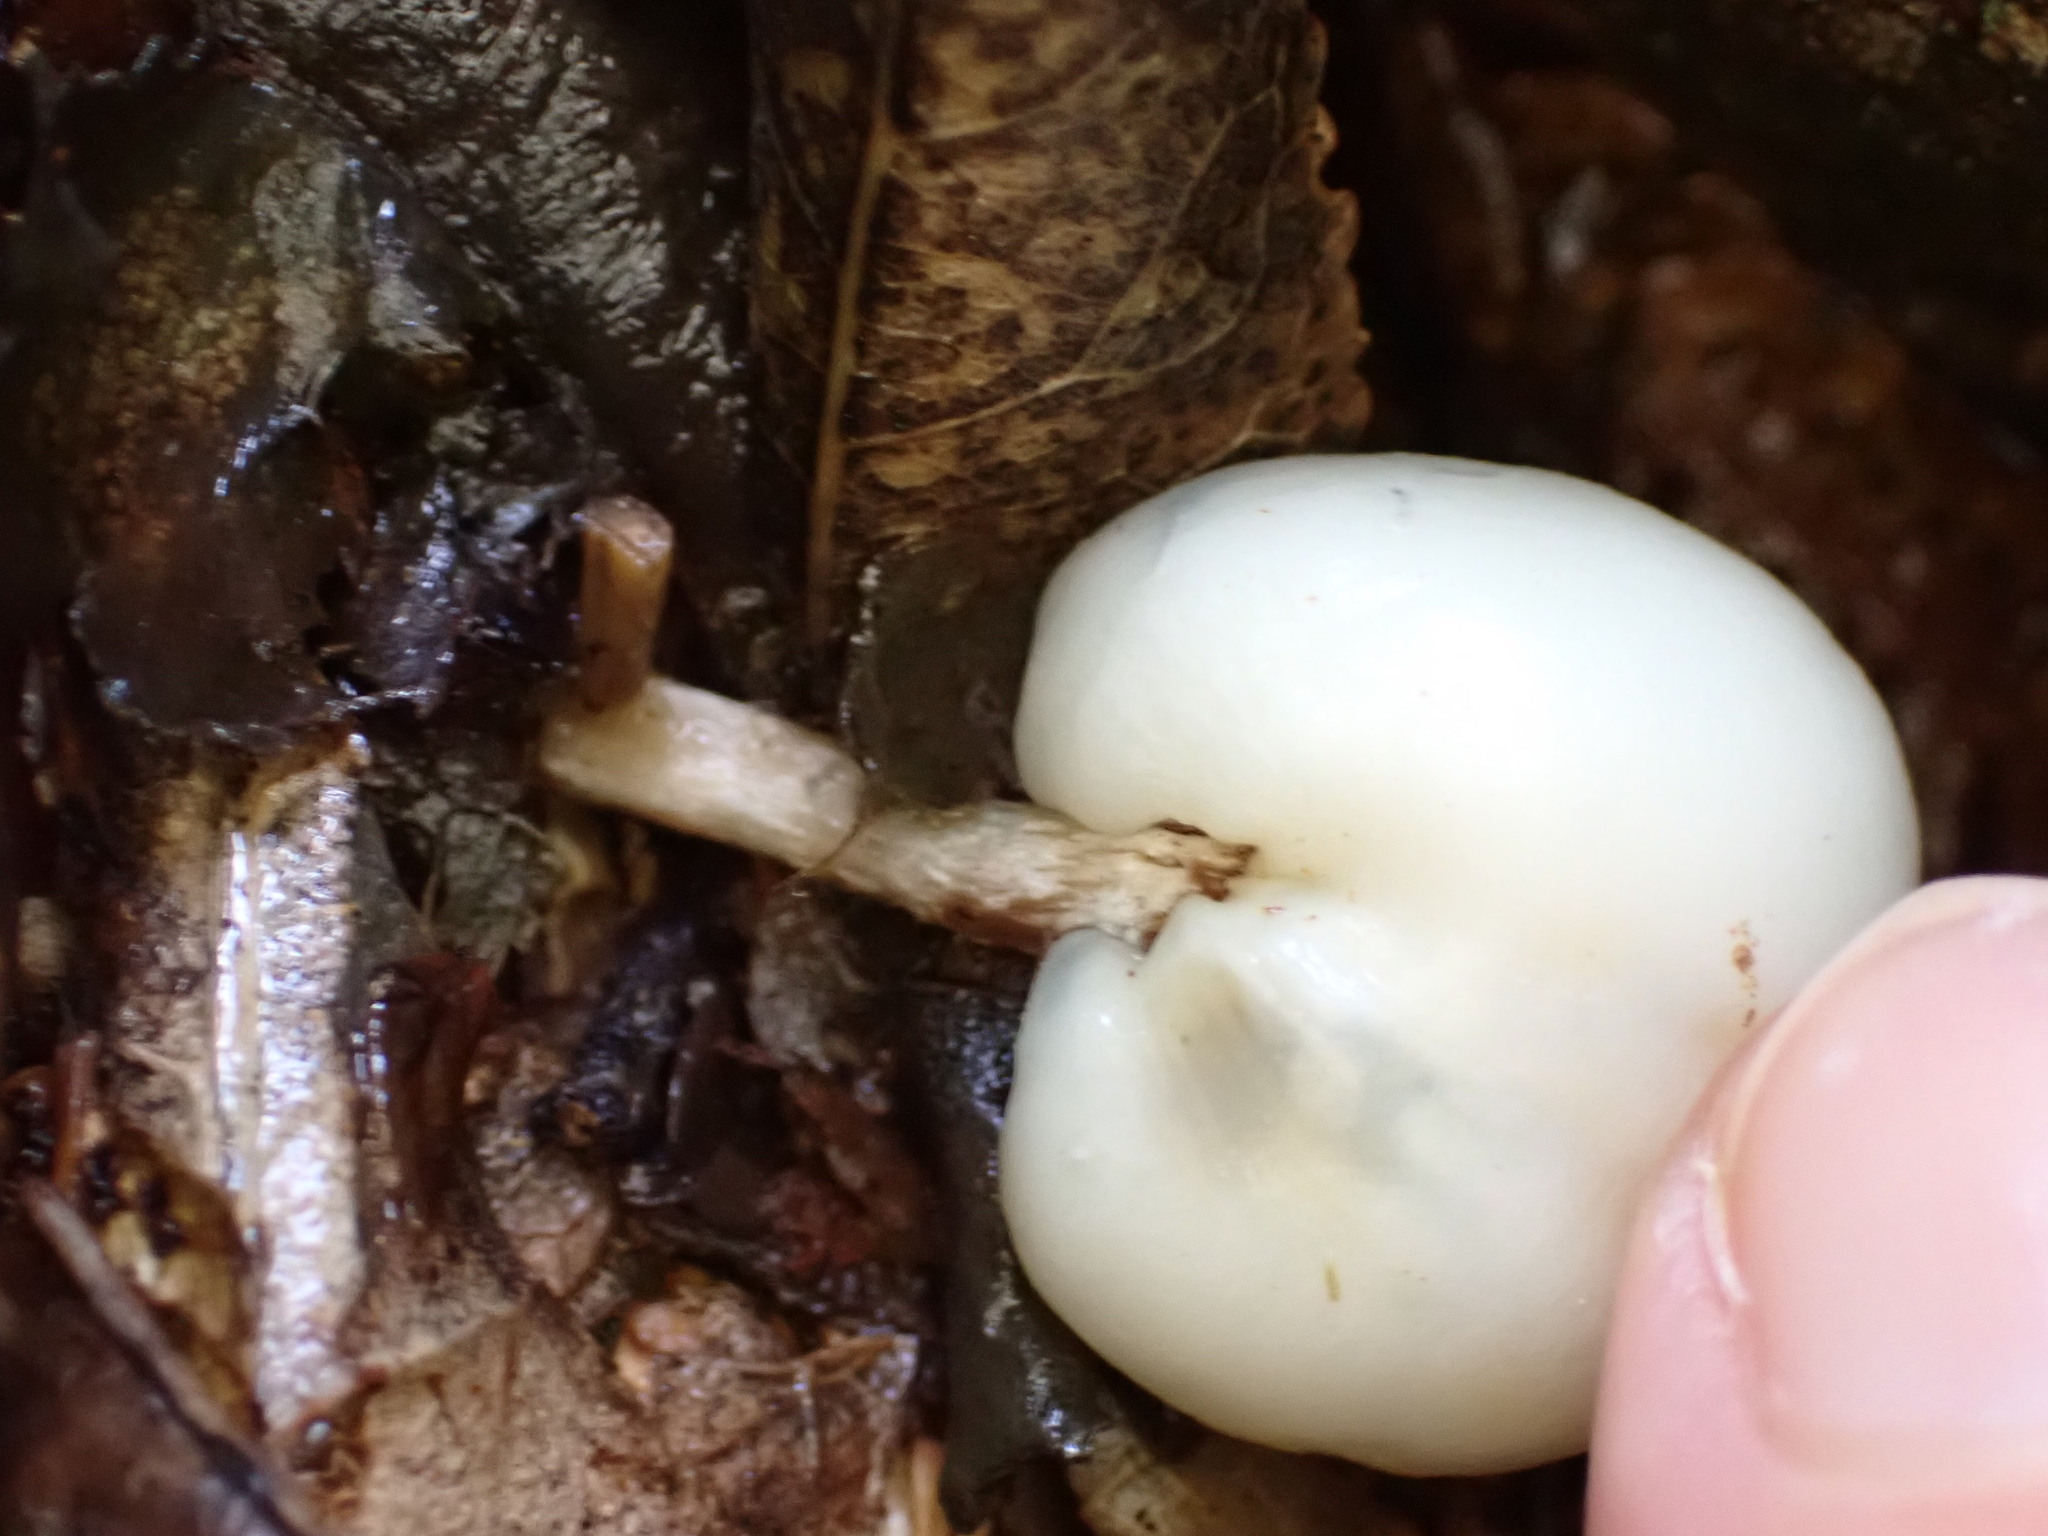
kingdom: Fungi
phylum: Basidiomycota
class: Agaricomycetes
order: Agaricales
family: Hymenogastraceae
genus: Psilocybe
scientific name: Psilocybe weraroa
